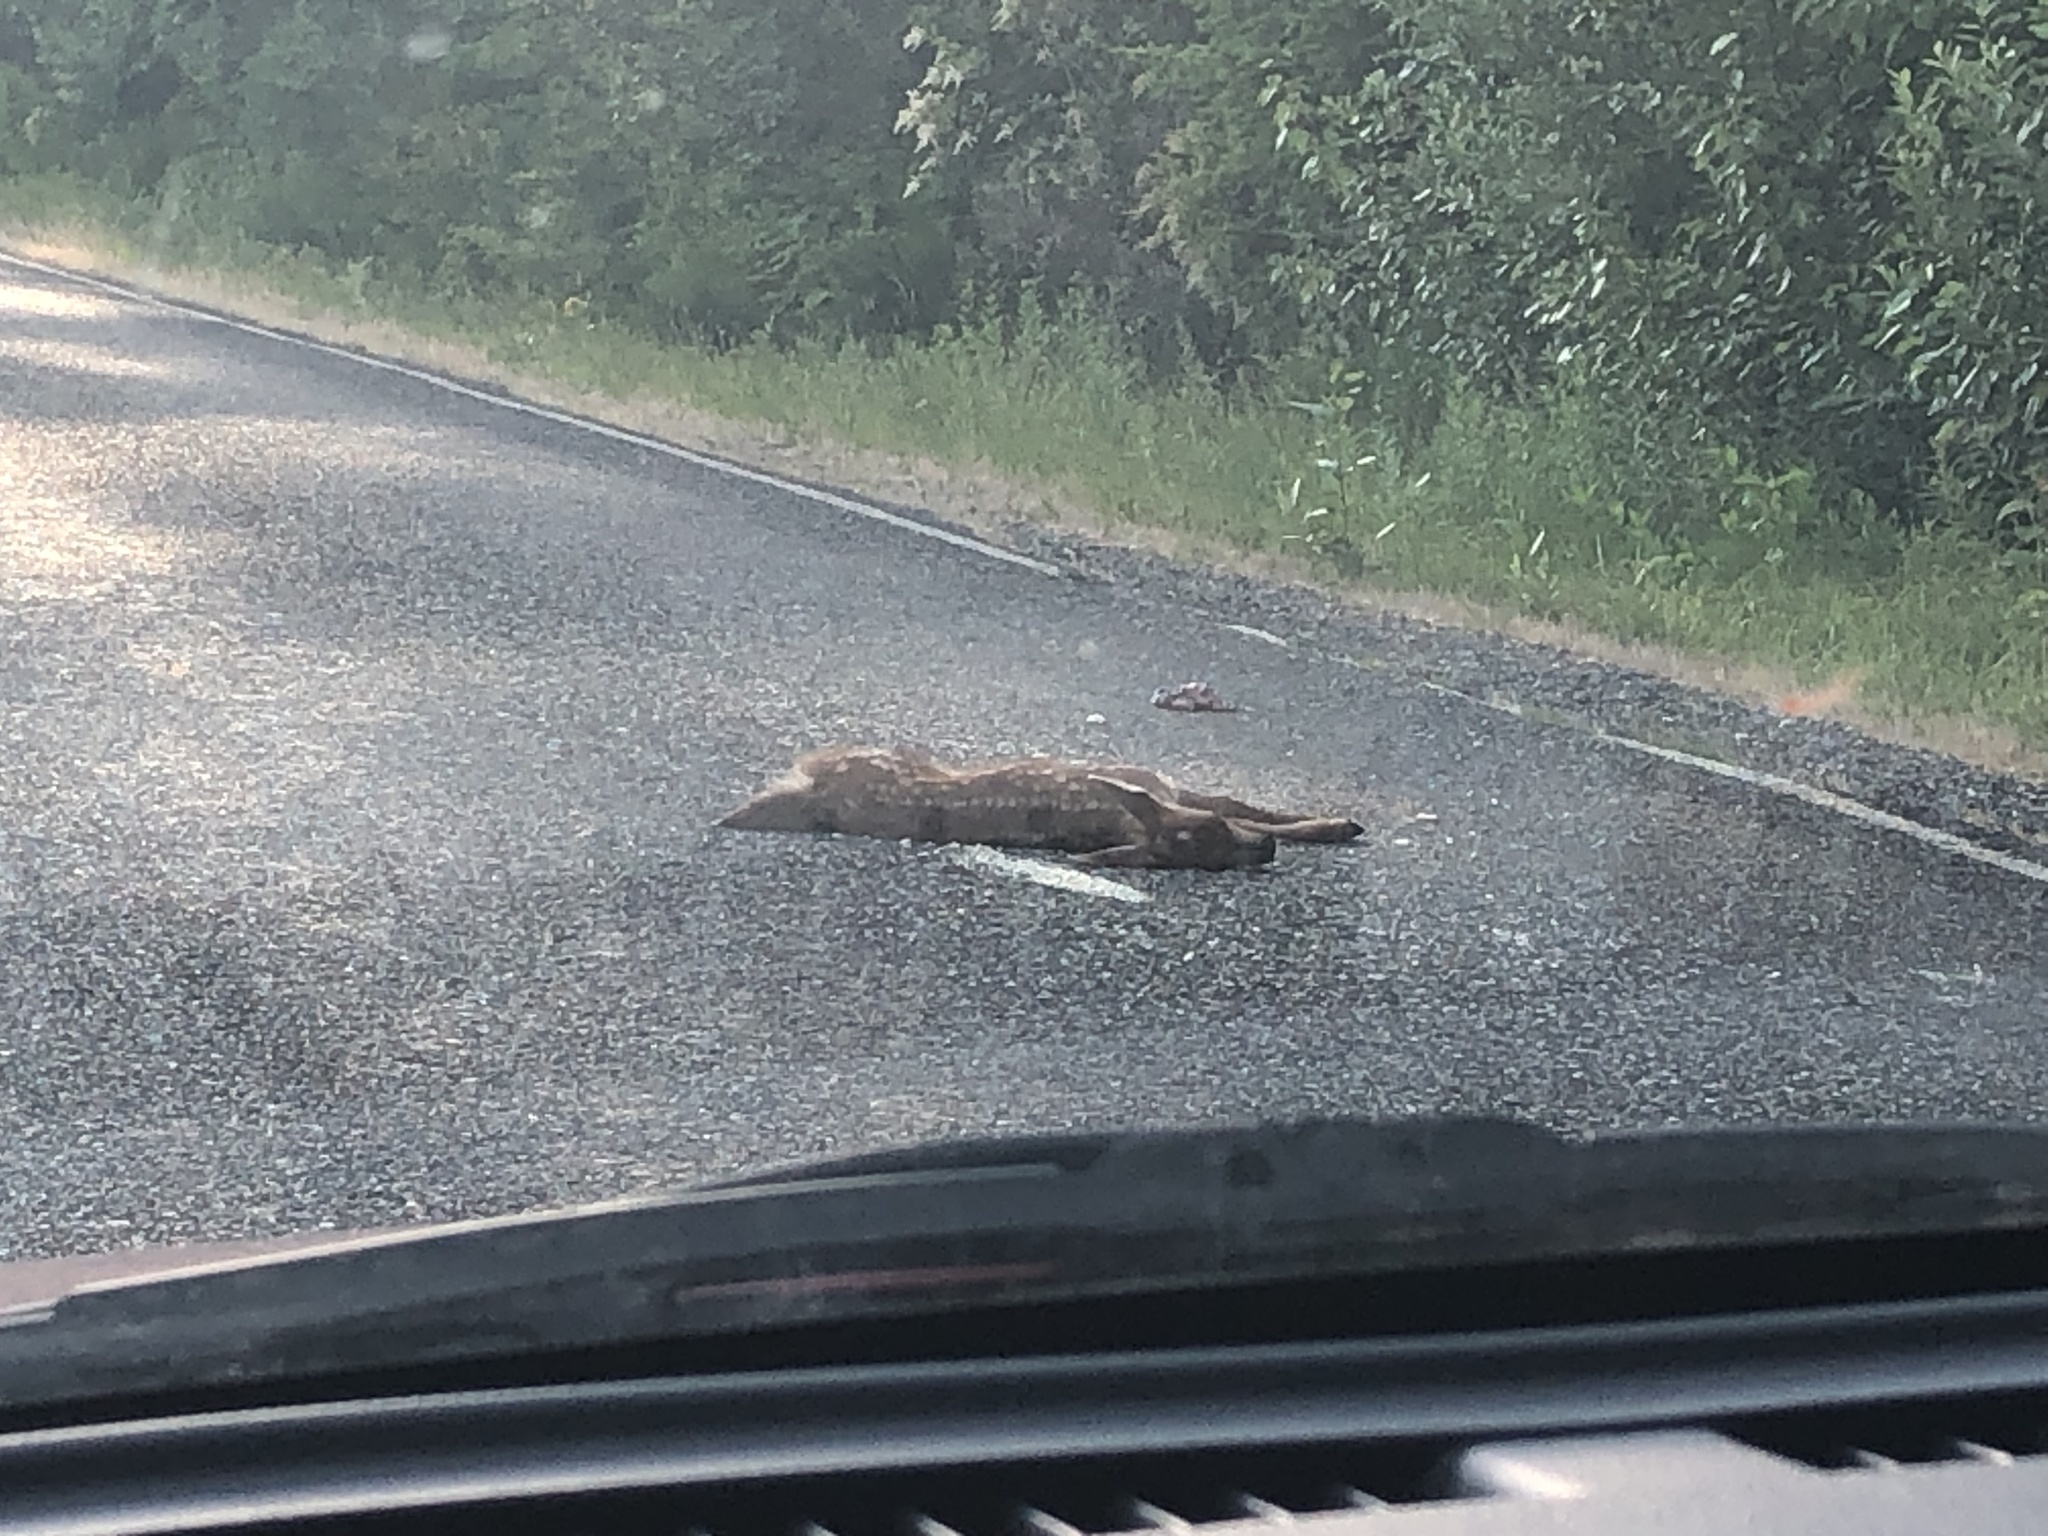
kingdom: Animalia
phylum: Chordata
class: Mammalia
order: Artiodactyla
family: Cervidae
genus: Odocoileus
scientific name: Odocoileus hemionus
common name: Mule deer
